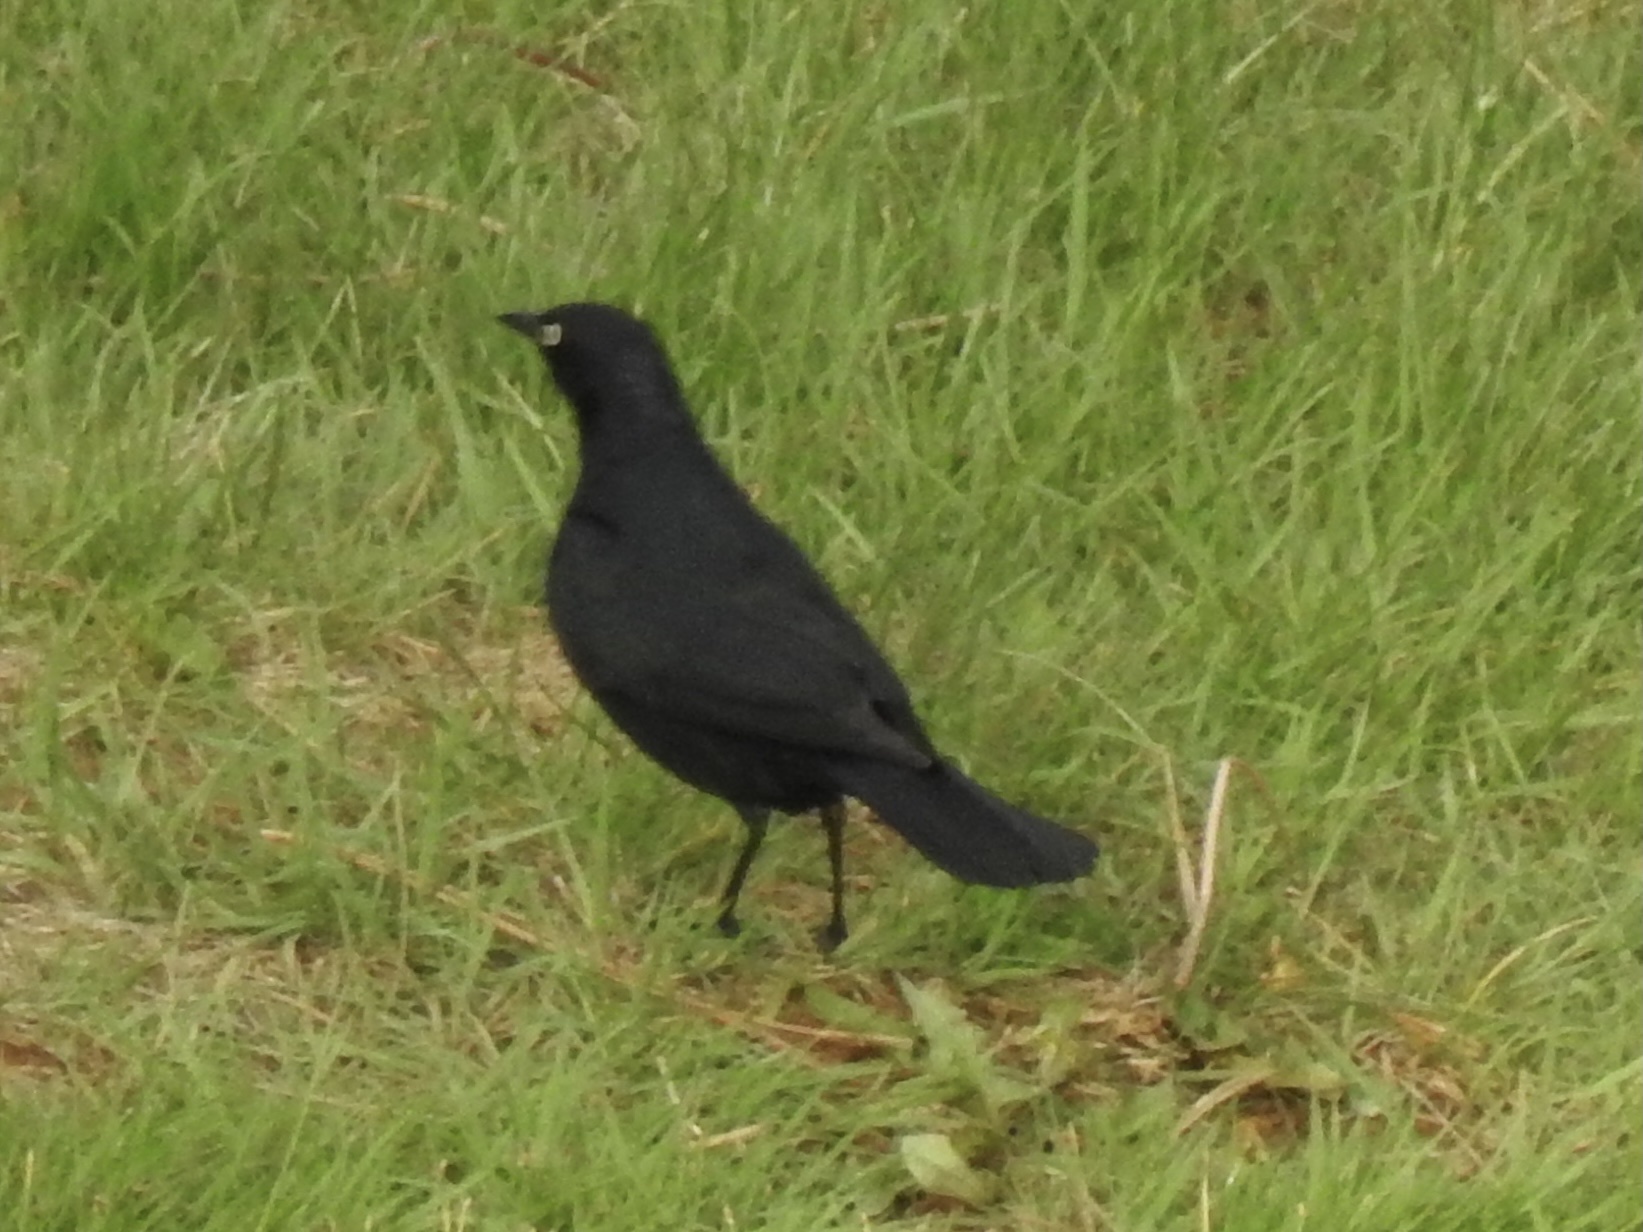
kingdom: Animalia
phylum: Chordata
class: Aves
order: Passeriformes
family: Icteridae
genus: Euphagus
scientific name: Euphagus cyanocephalus
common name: Brewer's blackbird
